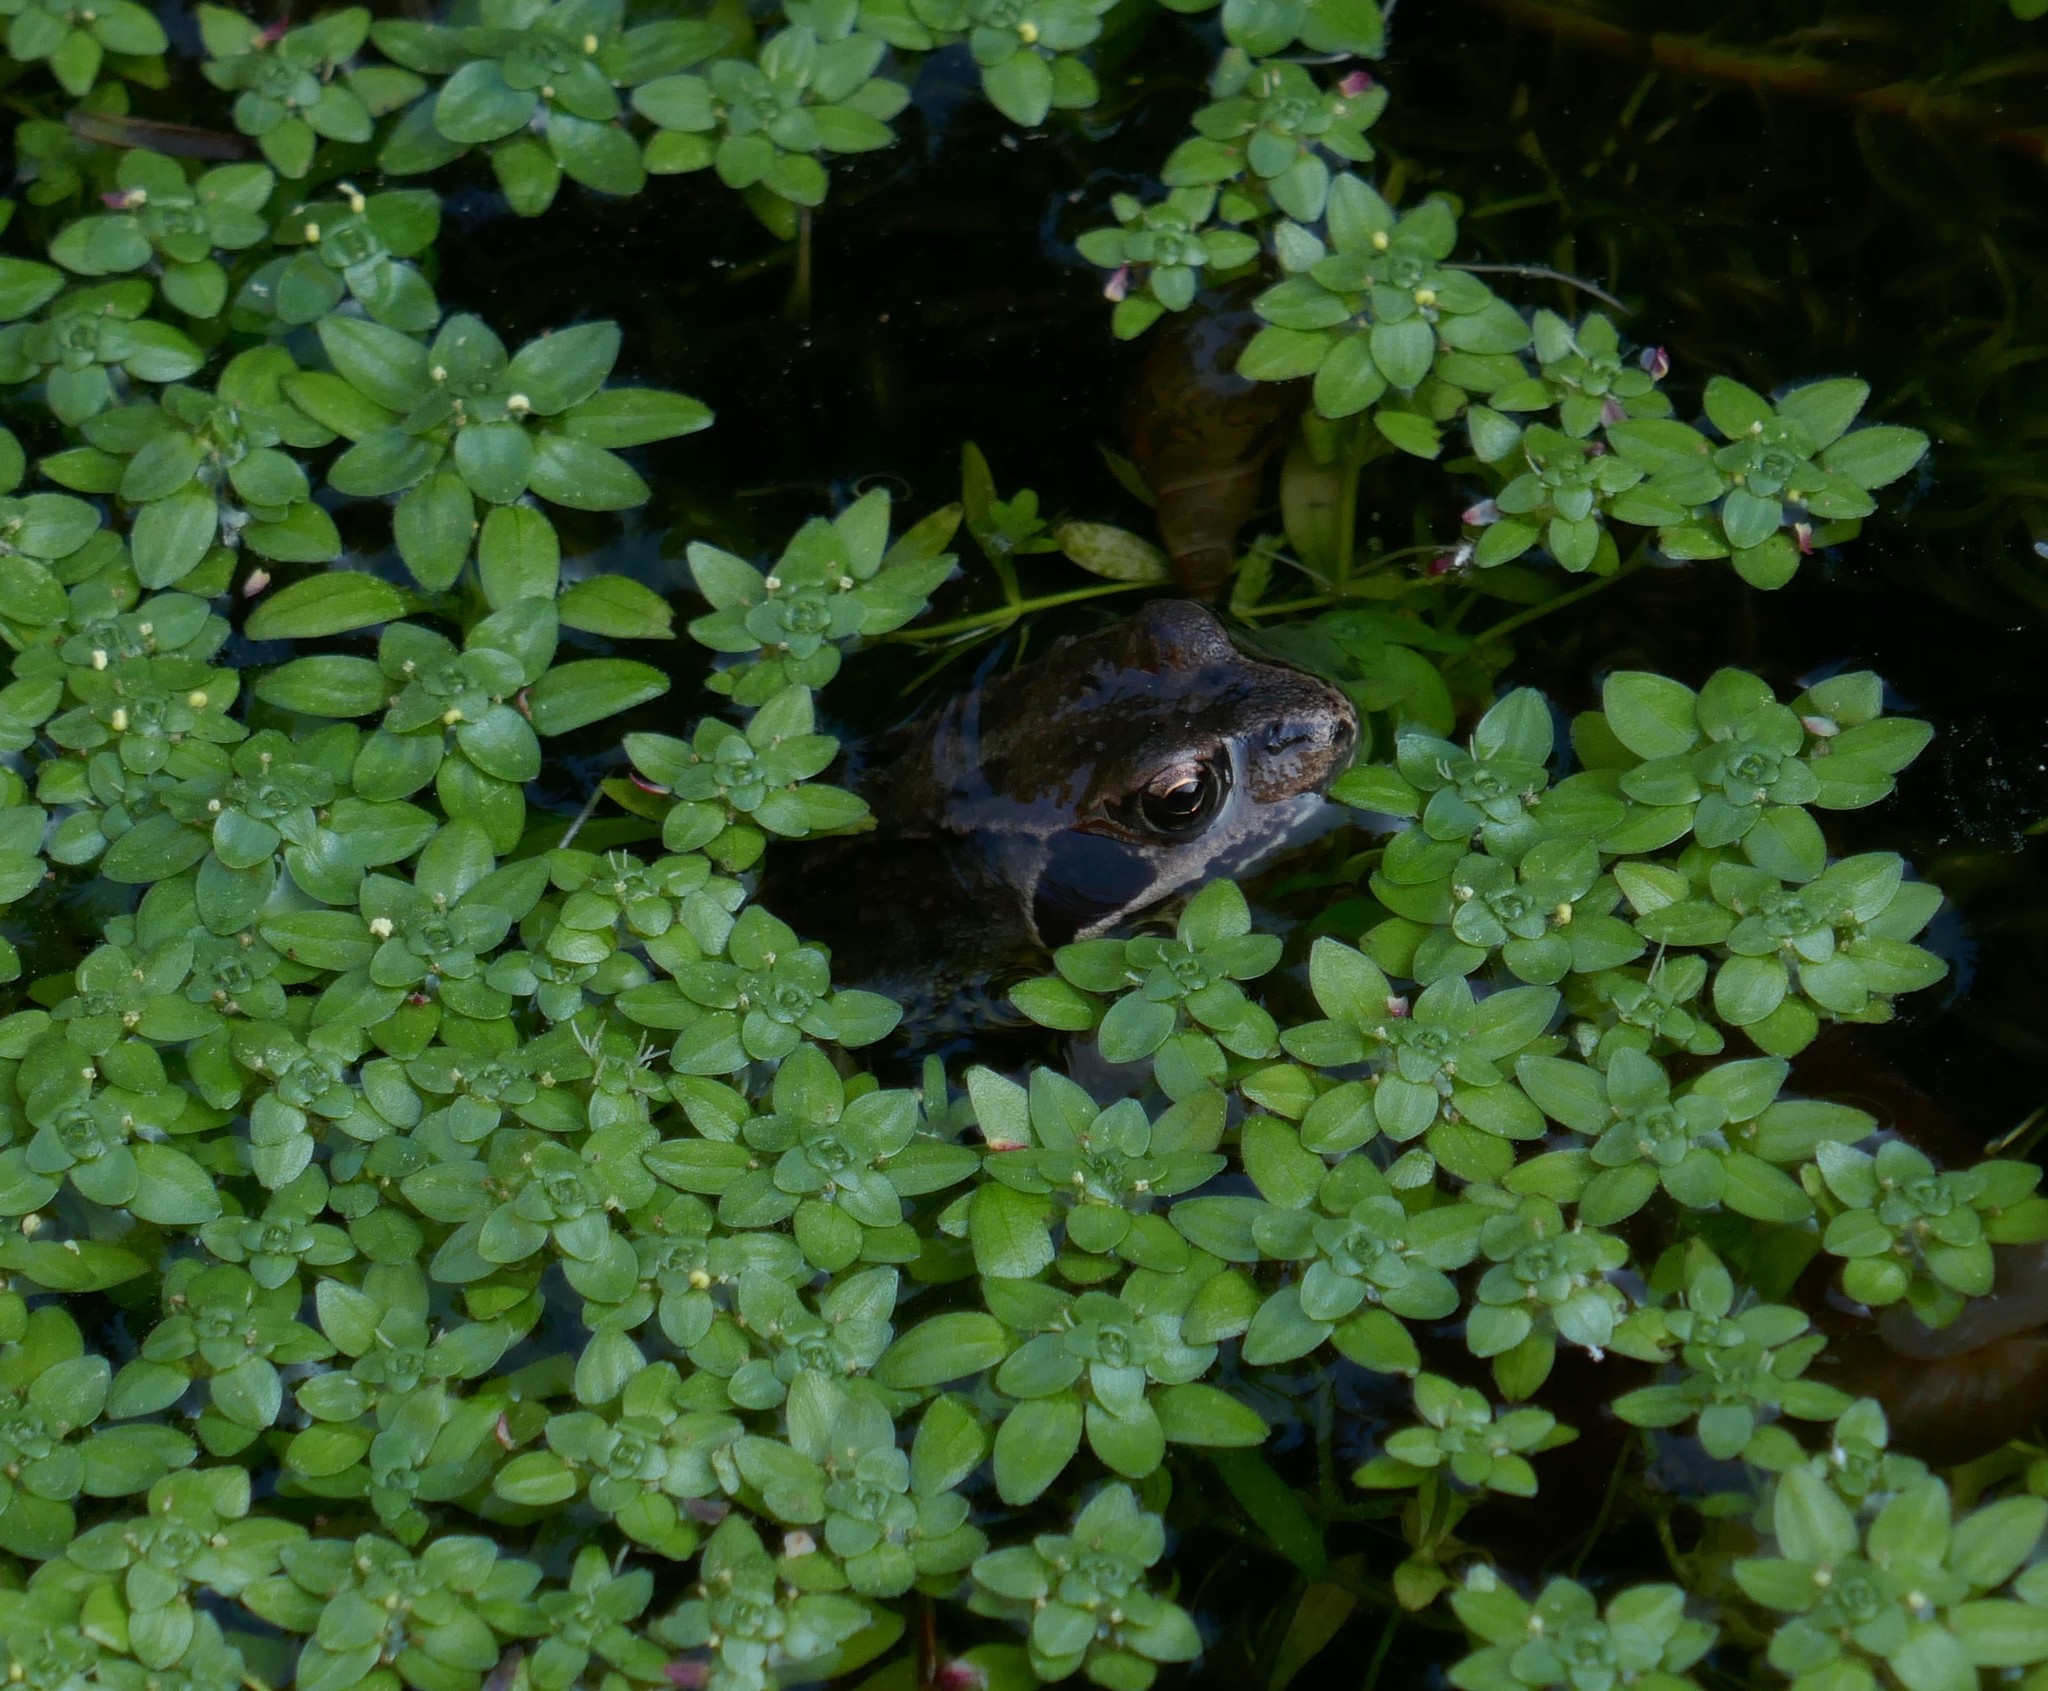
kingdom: Animalia
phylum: Chordata
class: Amphibia
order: Anura
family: Ranidae
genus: Rana
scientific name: Rana temporaria
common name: Common frog
